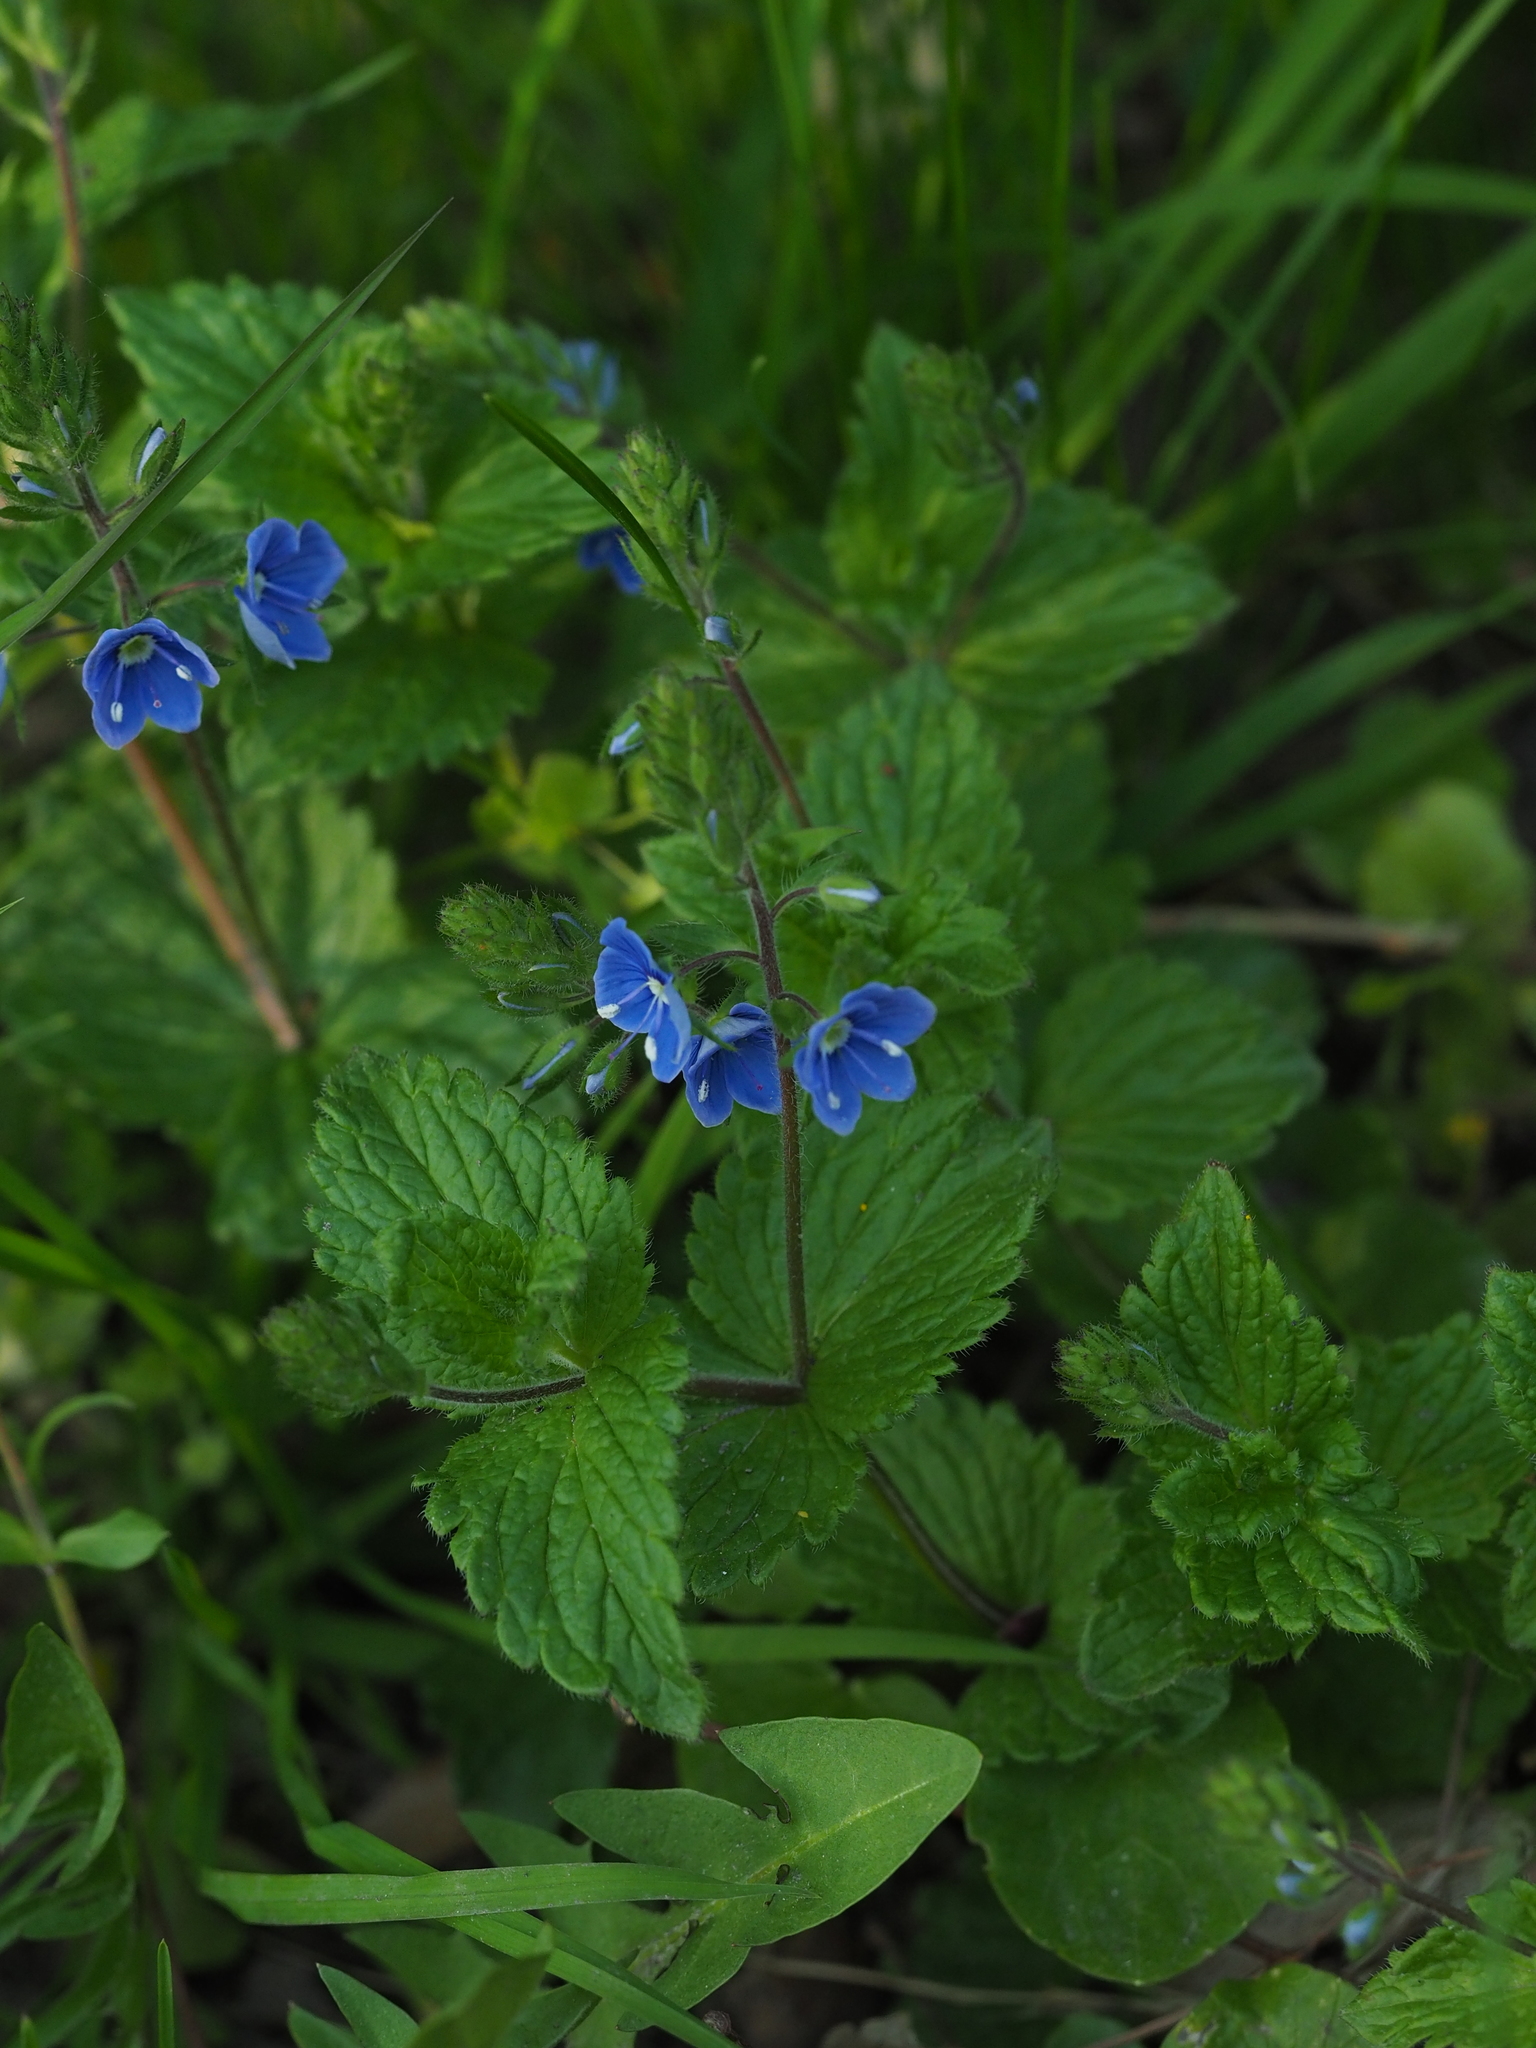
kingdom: Plantae
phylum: Tracheophyta
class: Magnoliopsida
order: Lamiales
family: Plantaginaceae
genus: Veronica
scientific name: Veronica chamaedrys
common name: Germander speedwell
